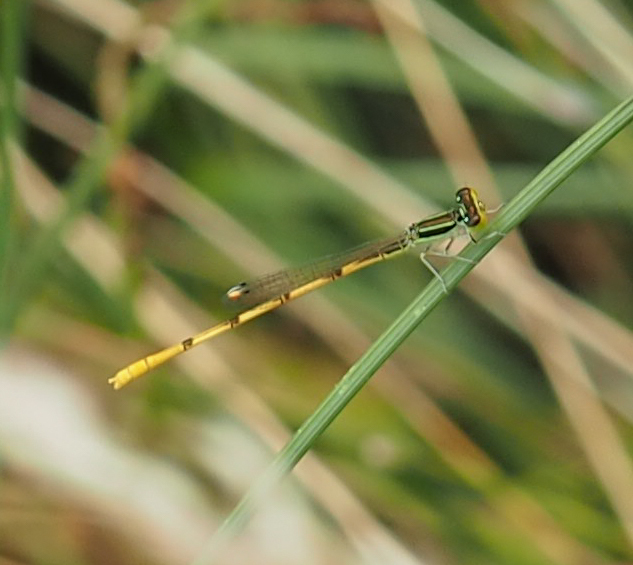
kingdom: Animalia
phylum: Arthropoda
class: Insecta
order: Odonata
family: Coenagrionidae
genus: Ischnura
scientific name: Ischnura hastata
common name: Citrine forktail
